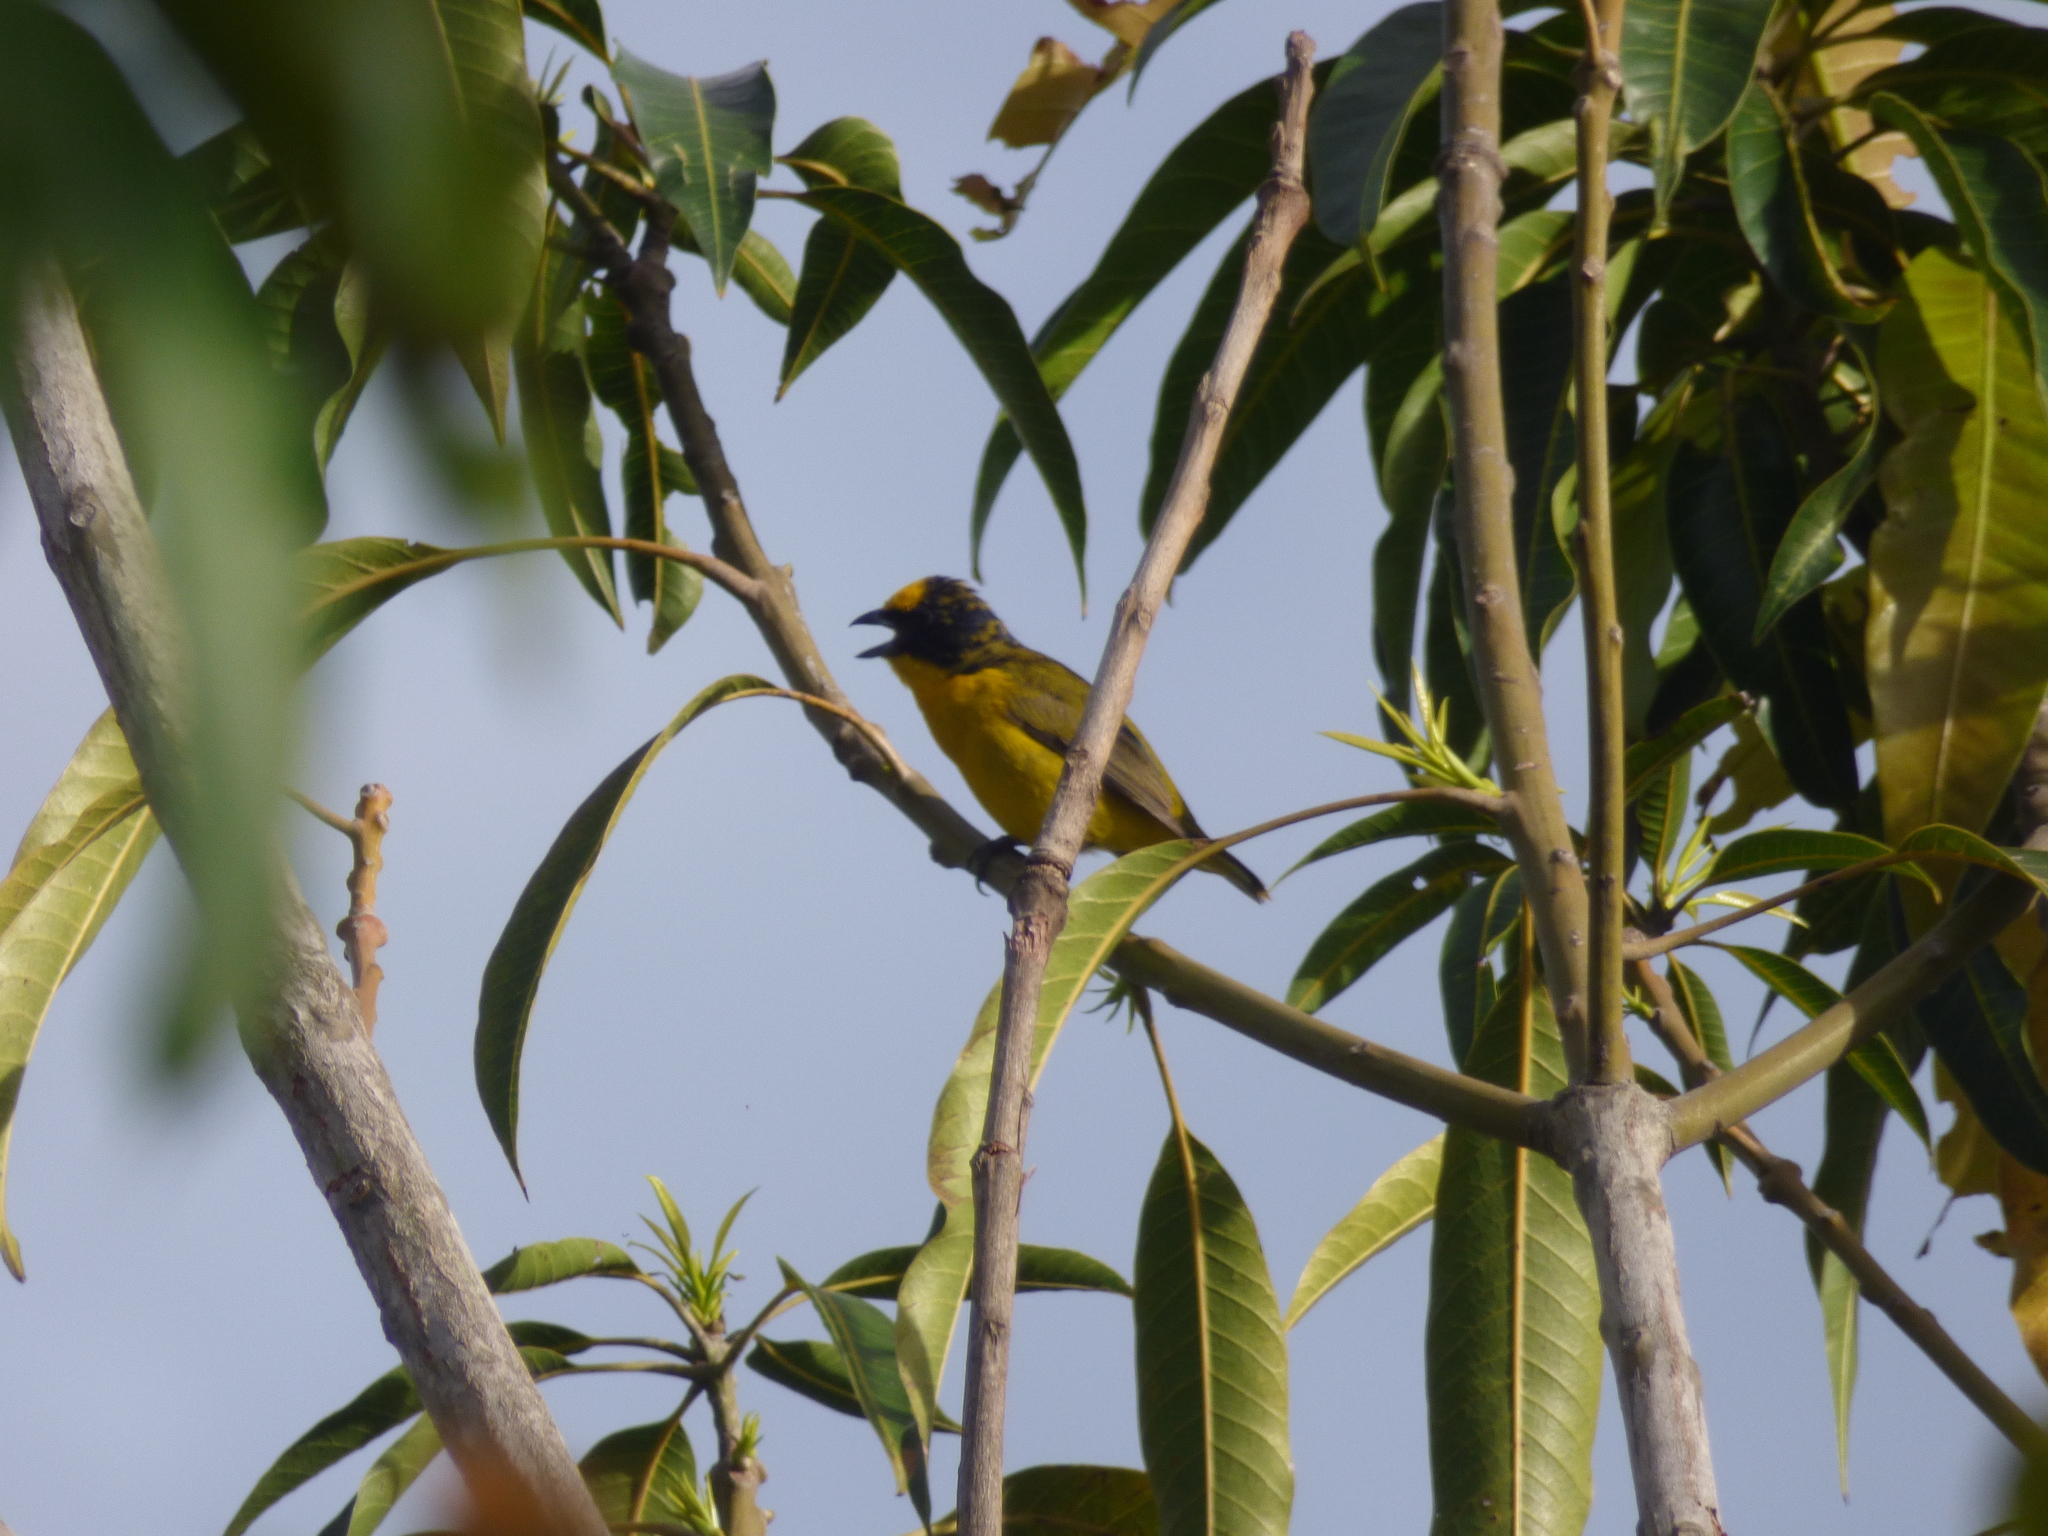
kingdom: Animalia
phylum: Chordata
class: Aves
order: Passeriformes
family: Fringillidae
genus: Euphonia
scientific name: Euphonia laniirostris
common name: Thick-billed euphonia
